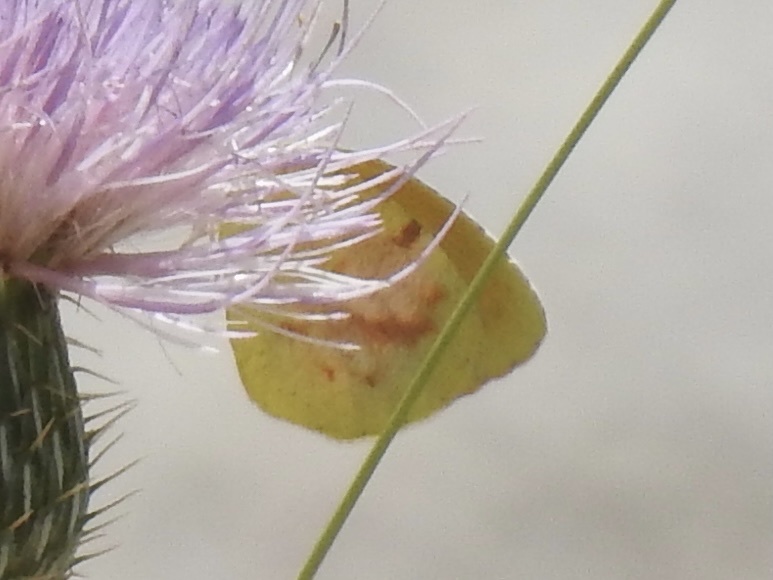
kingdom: Animalia
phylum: Arthropoda
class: Insecta
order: Lepidoptera
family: Pieridae
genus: Abaeis
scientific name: Abaeis nicippe
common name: Sleepy orange
